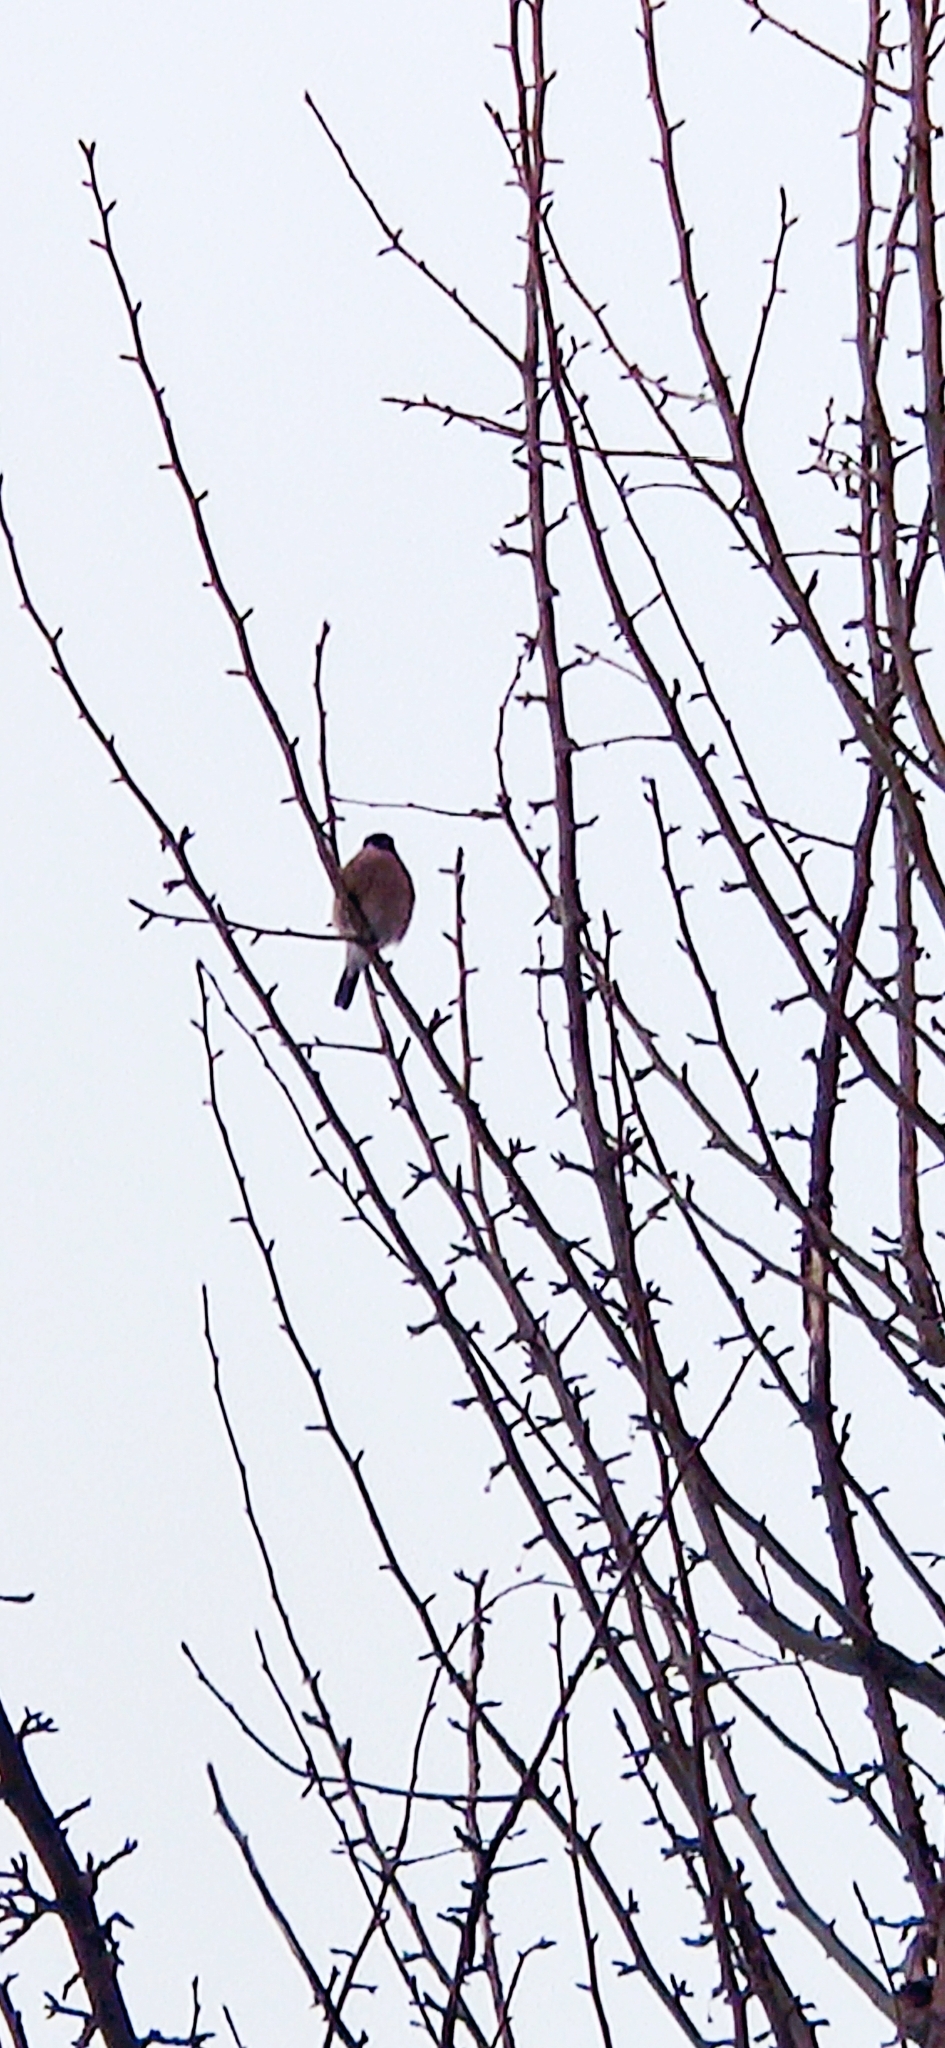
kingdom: Animalia
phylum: Chordata
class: Aves
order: Passeriformes
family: Fringillidae
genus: Pyrrhula
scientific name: Pyrrhula pyrrhula
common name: Eurasian bullfinch
